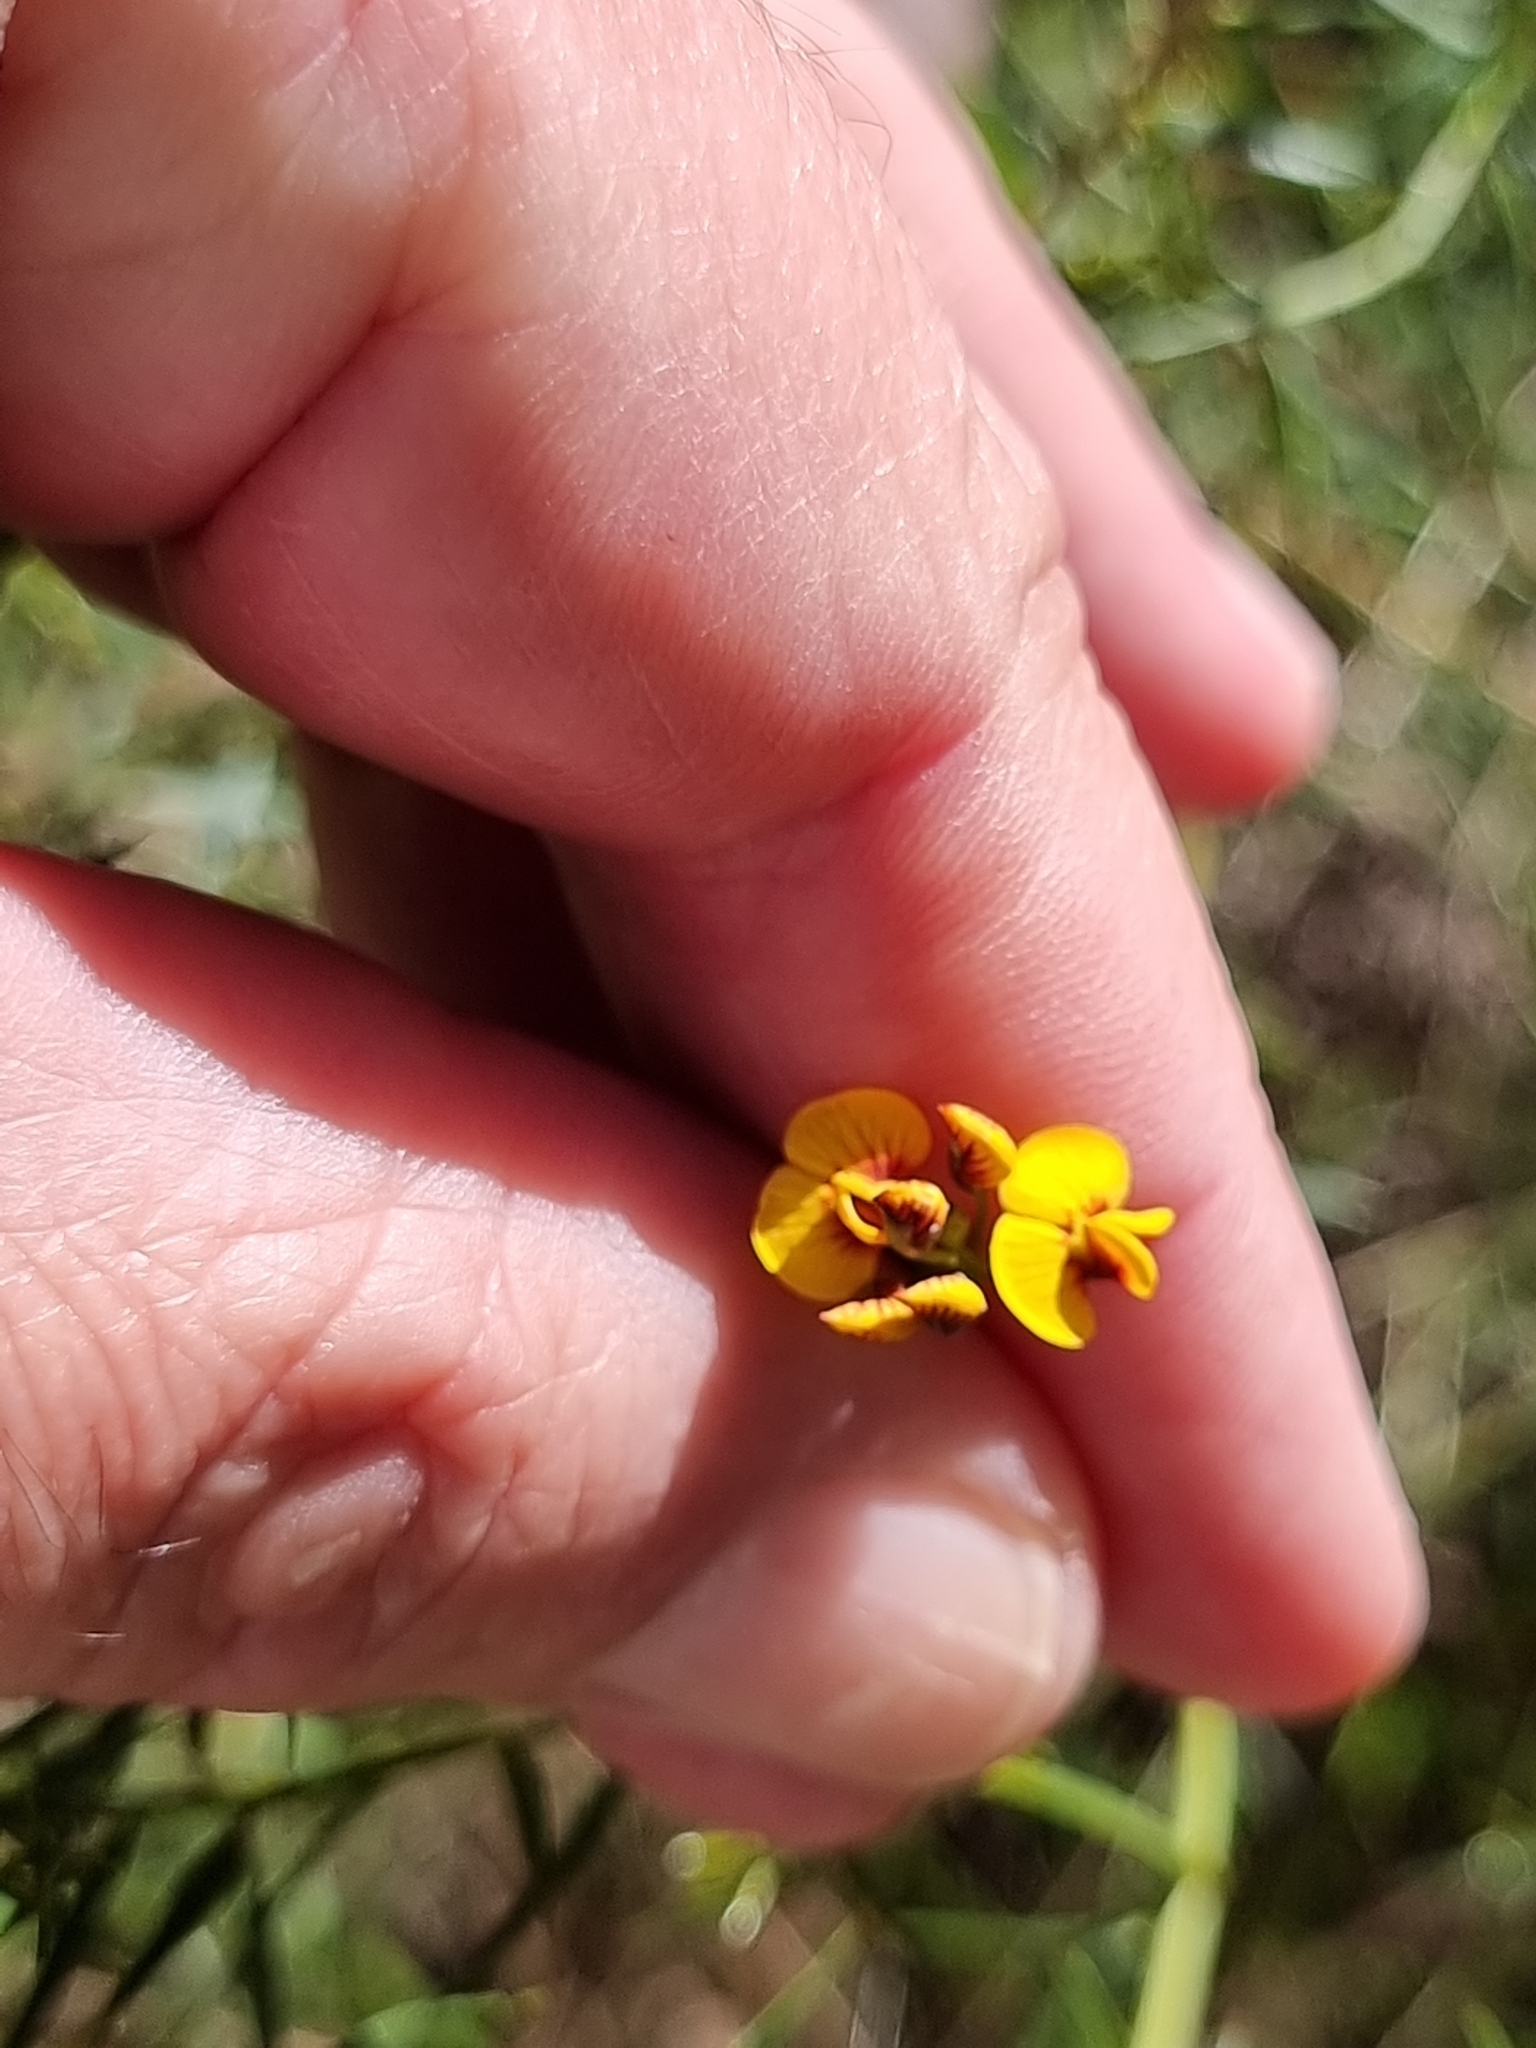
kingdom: Plantae
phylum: Tracheophyta
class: Magnoliopsida
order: Fabales
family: Fabaceae
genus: Daviesia
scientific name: Daviesia ulicifolia
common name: Gorse bitter-pea
